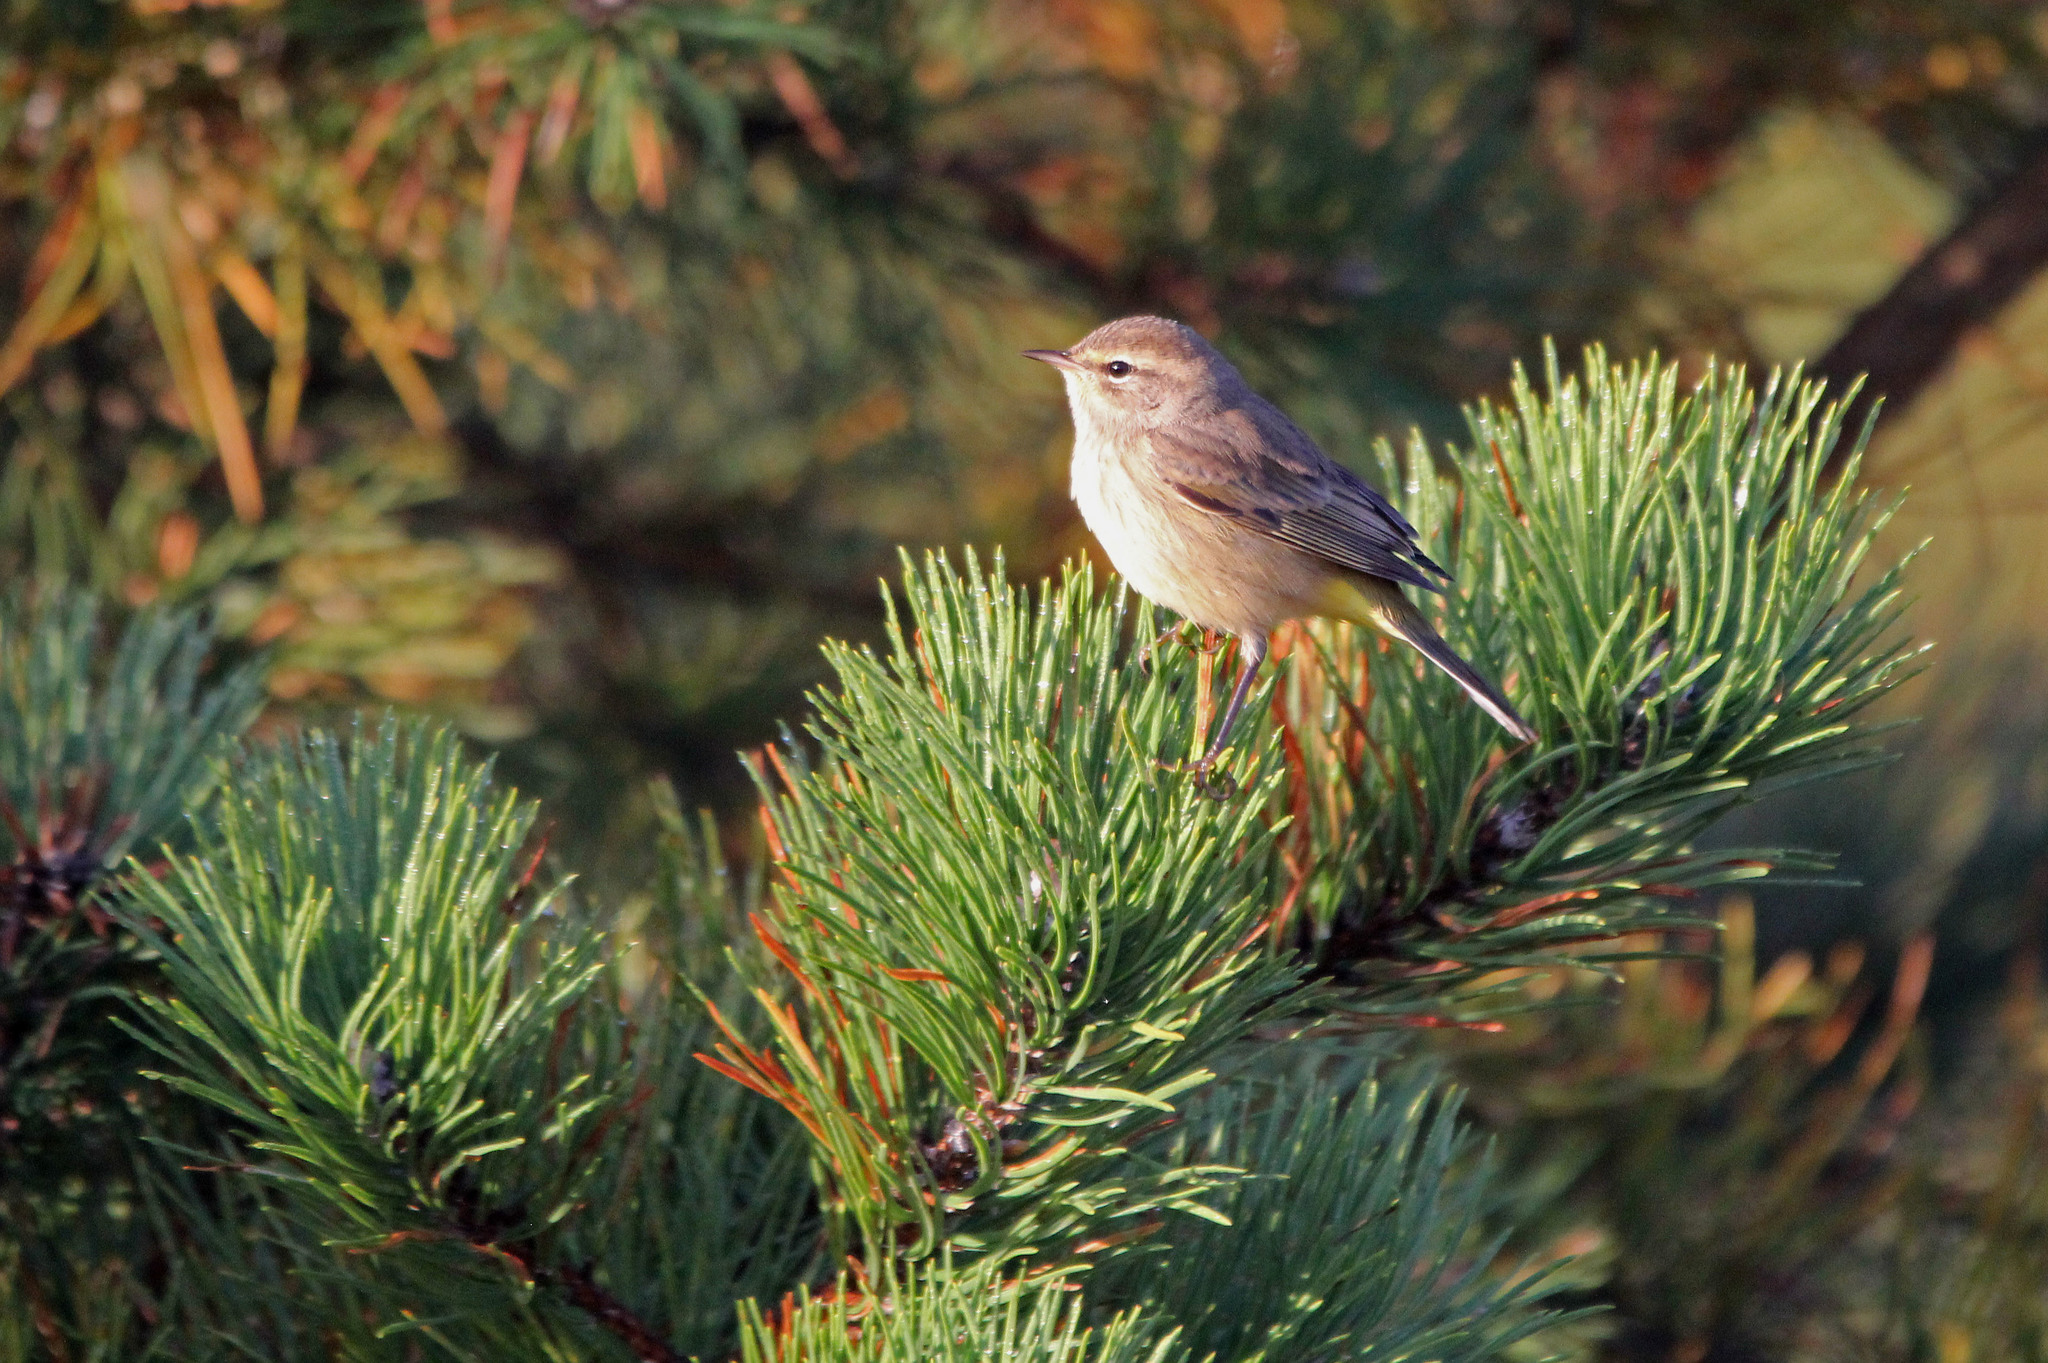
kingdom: Animalia
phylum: Chordata
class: Aves
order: Passeriformes
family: Parulidae
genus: Setophaga
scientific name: Setophaga palmarum
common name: Palm warbler
